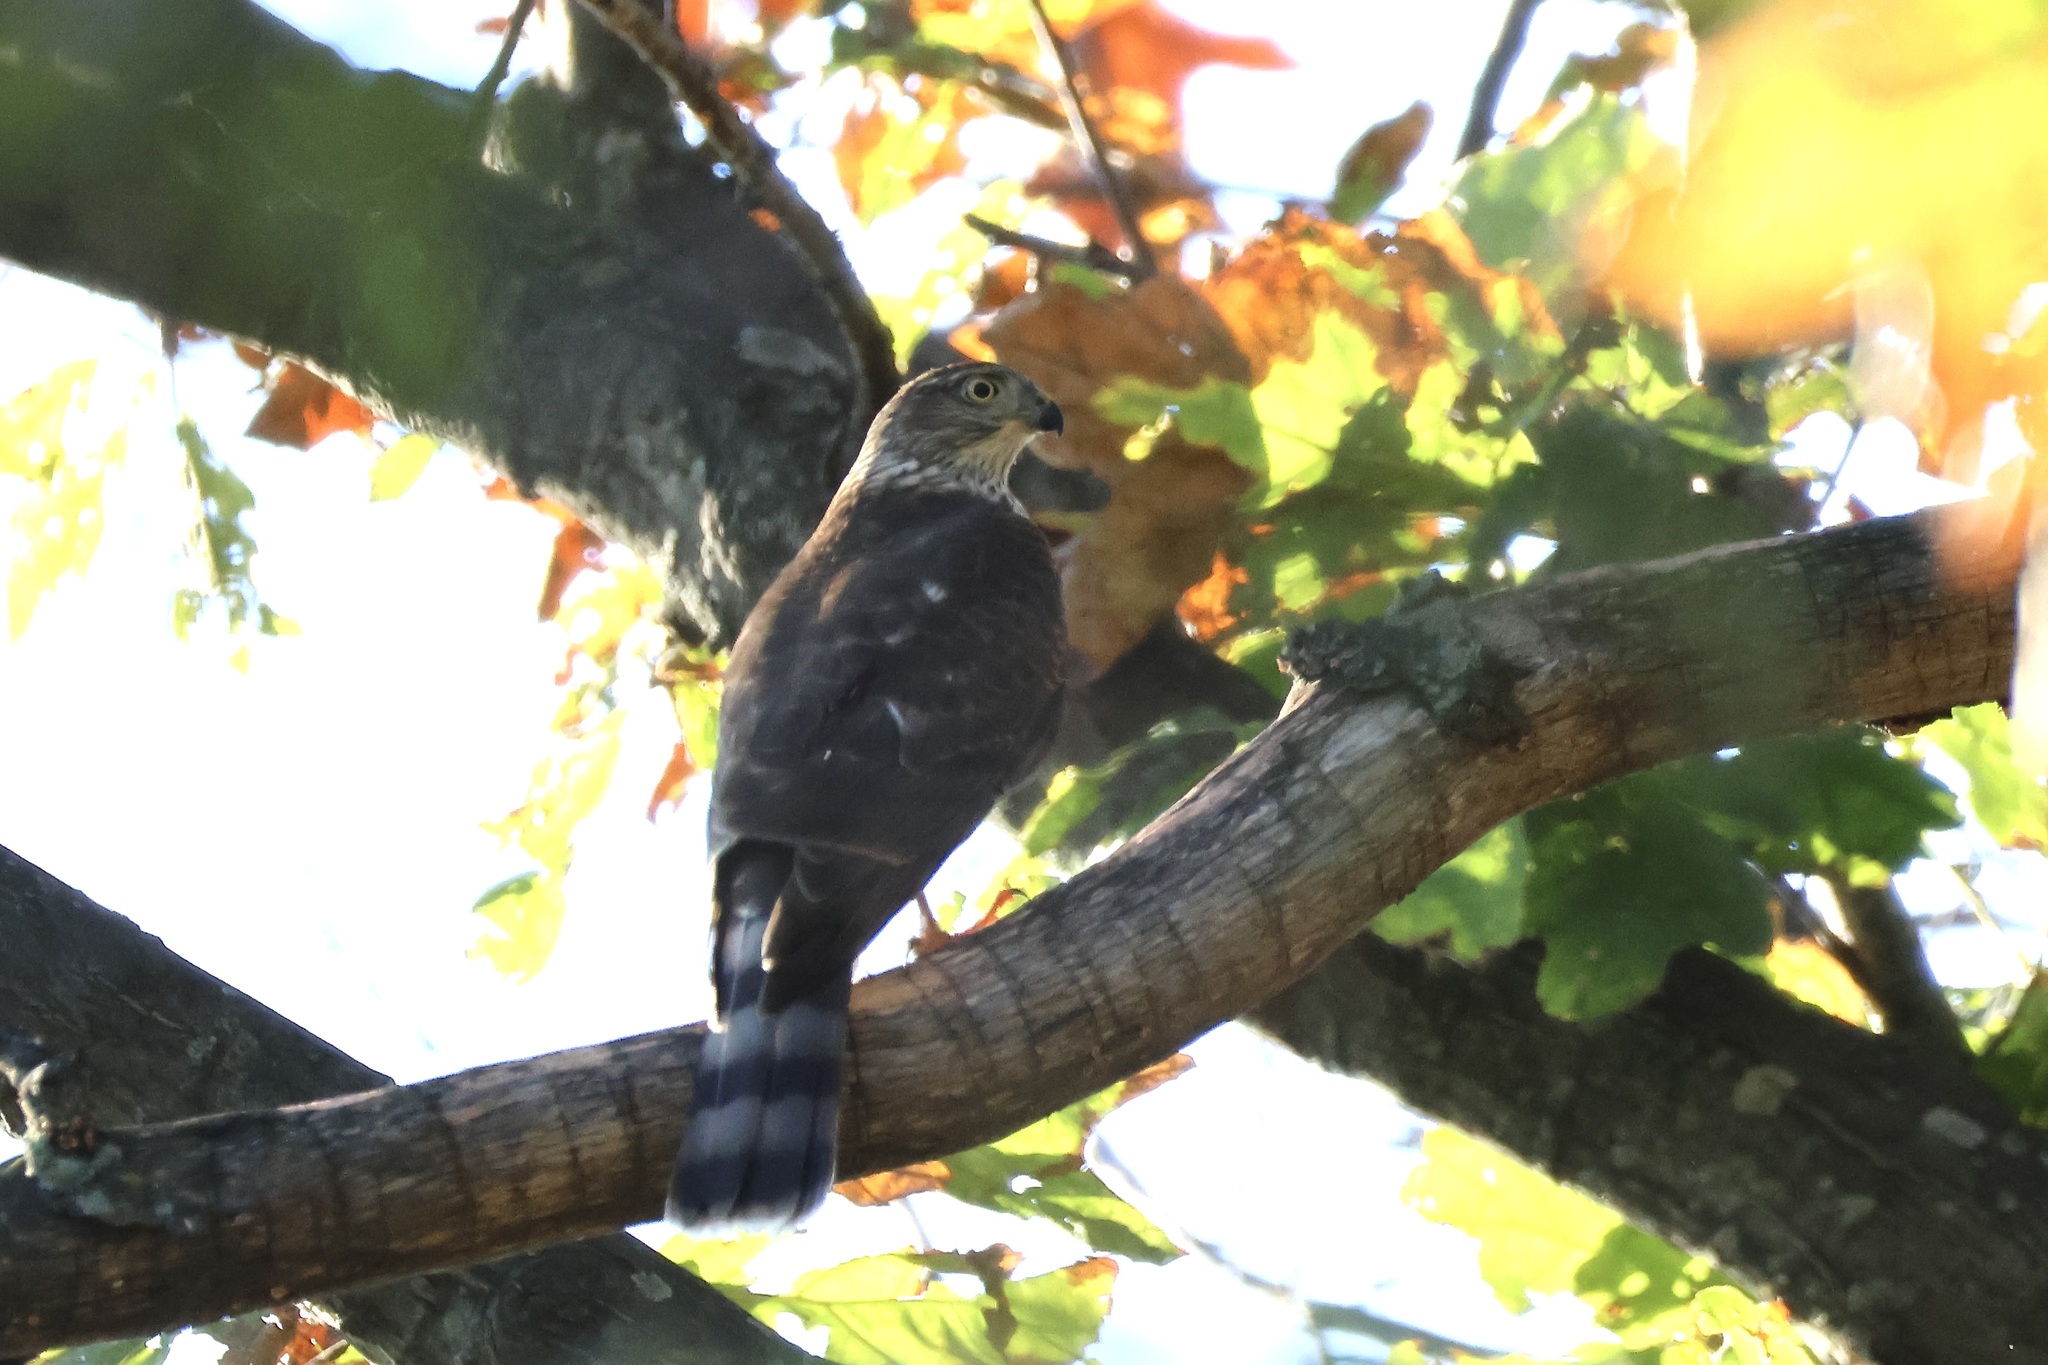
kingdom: Animalia
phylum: Chordata
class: Aves
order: Accipitriformes
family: Accipitridae
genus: Accipiter
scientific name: Accipiter striatus
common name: Sharp-shinned hawk
